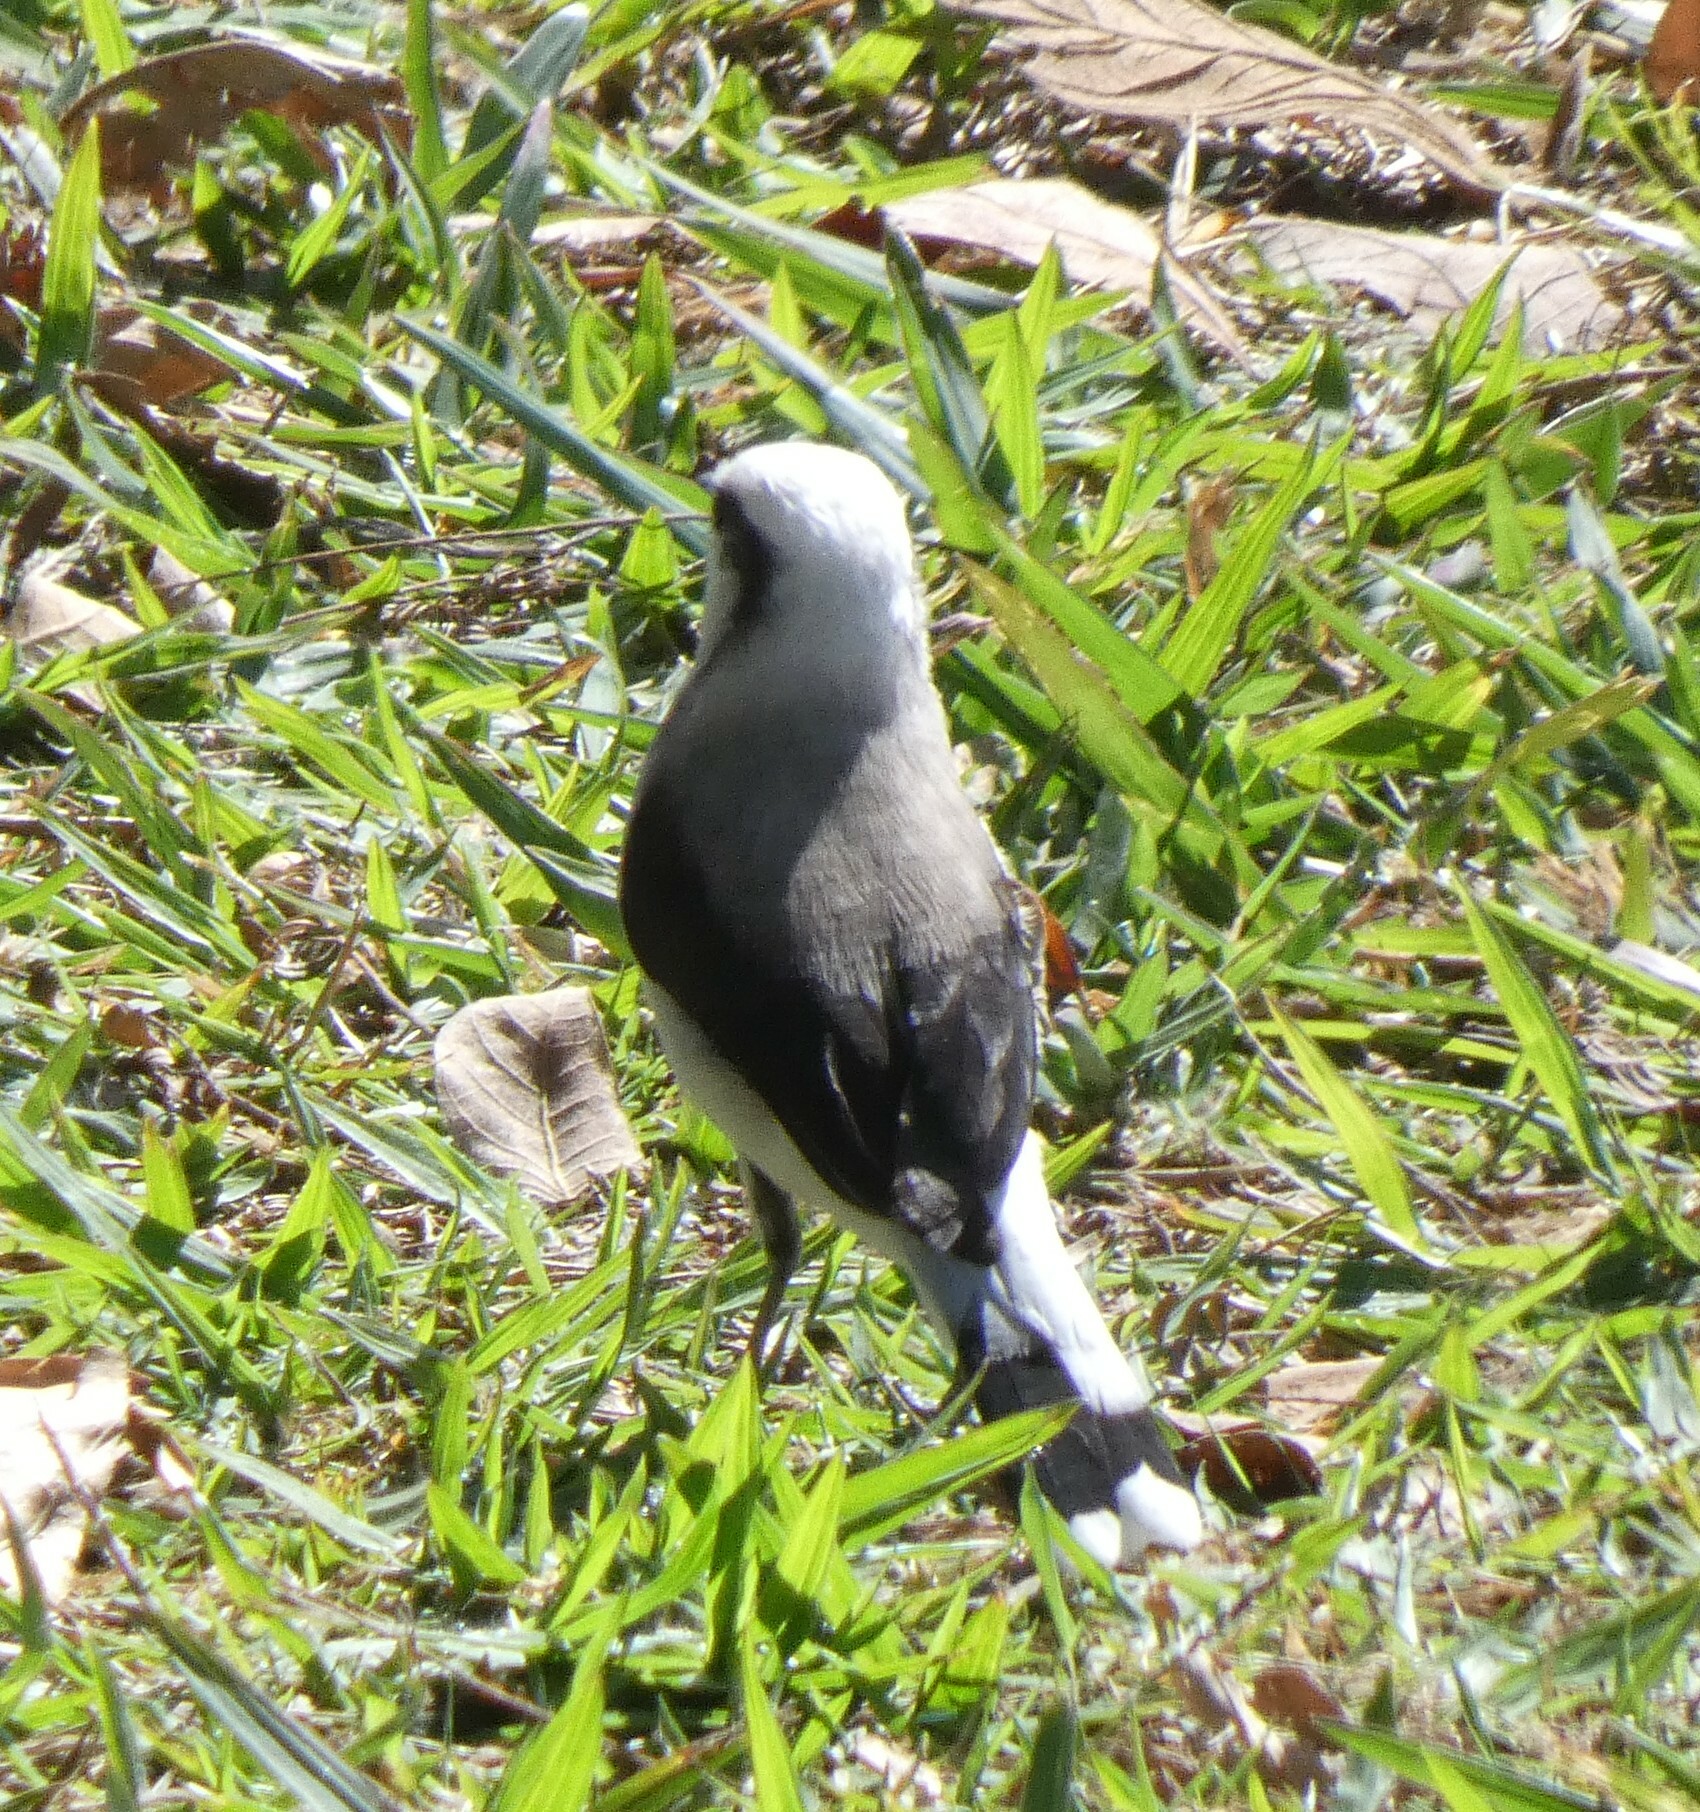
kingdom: Animalia
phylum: Chordata
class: Aves
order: Passeriformes
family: Tyrannidae
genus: Fluvicola
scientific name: Fluvicola nengeta
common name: Masked water tyrant
